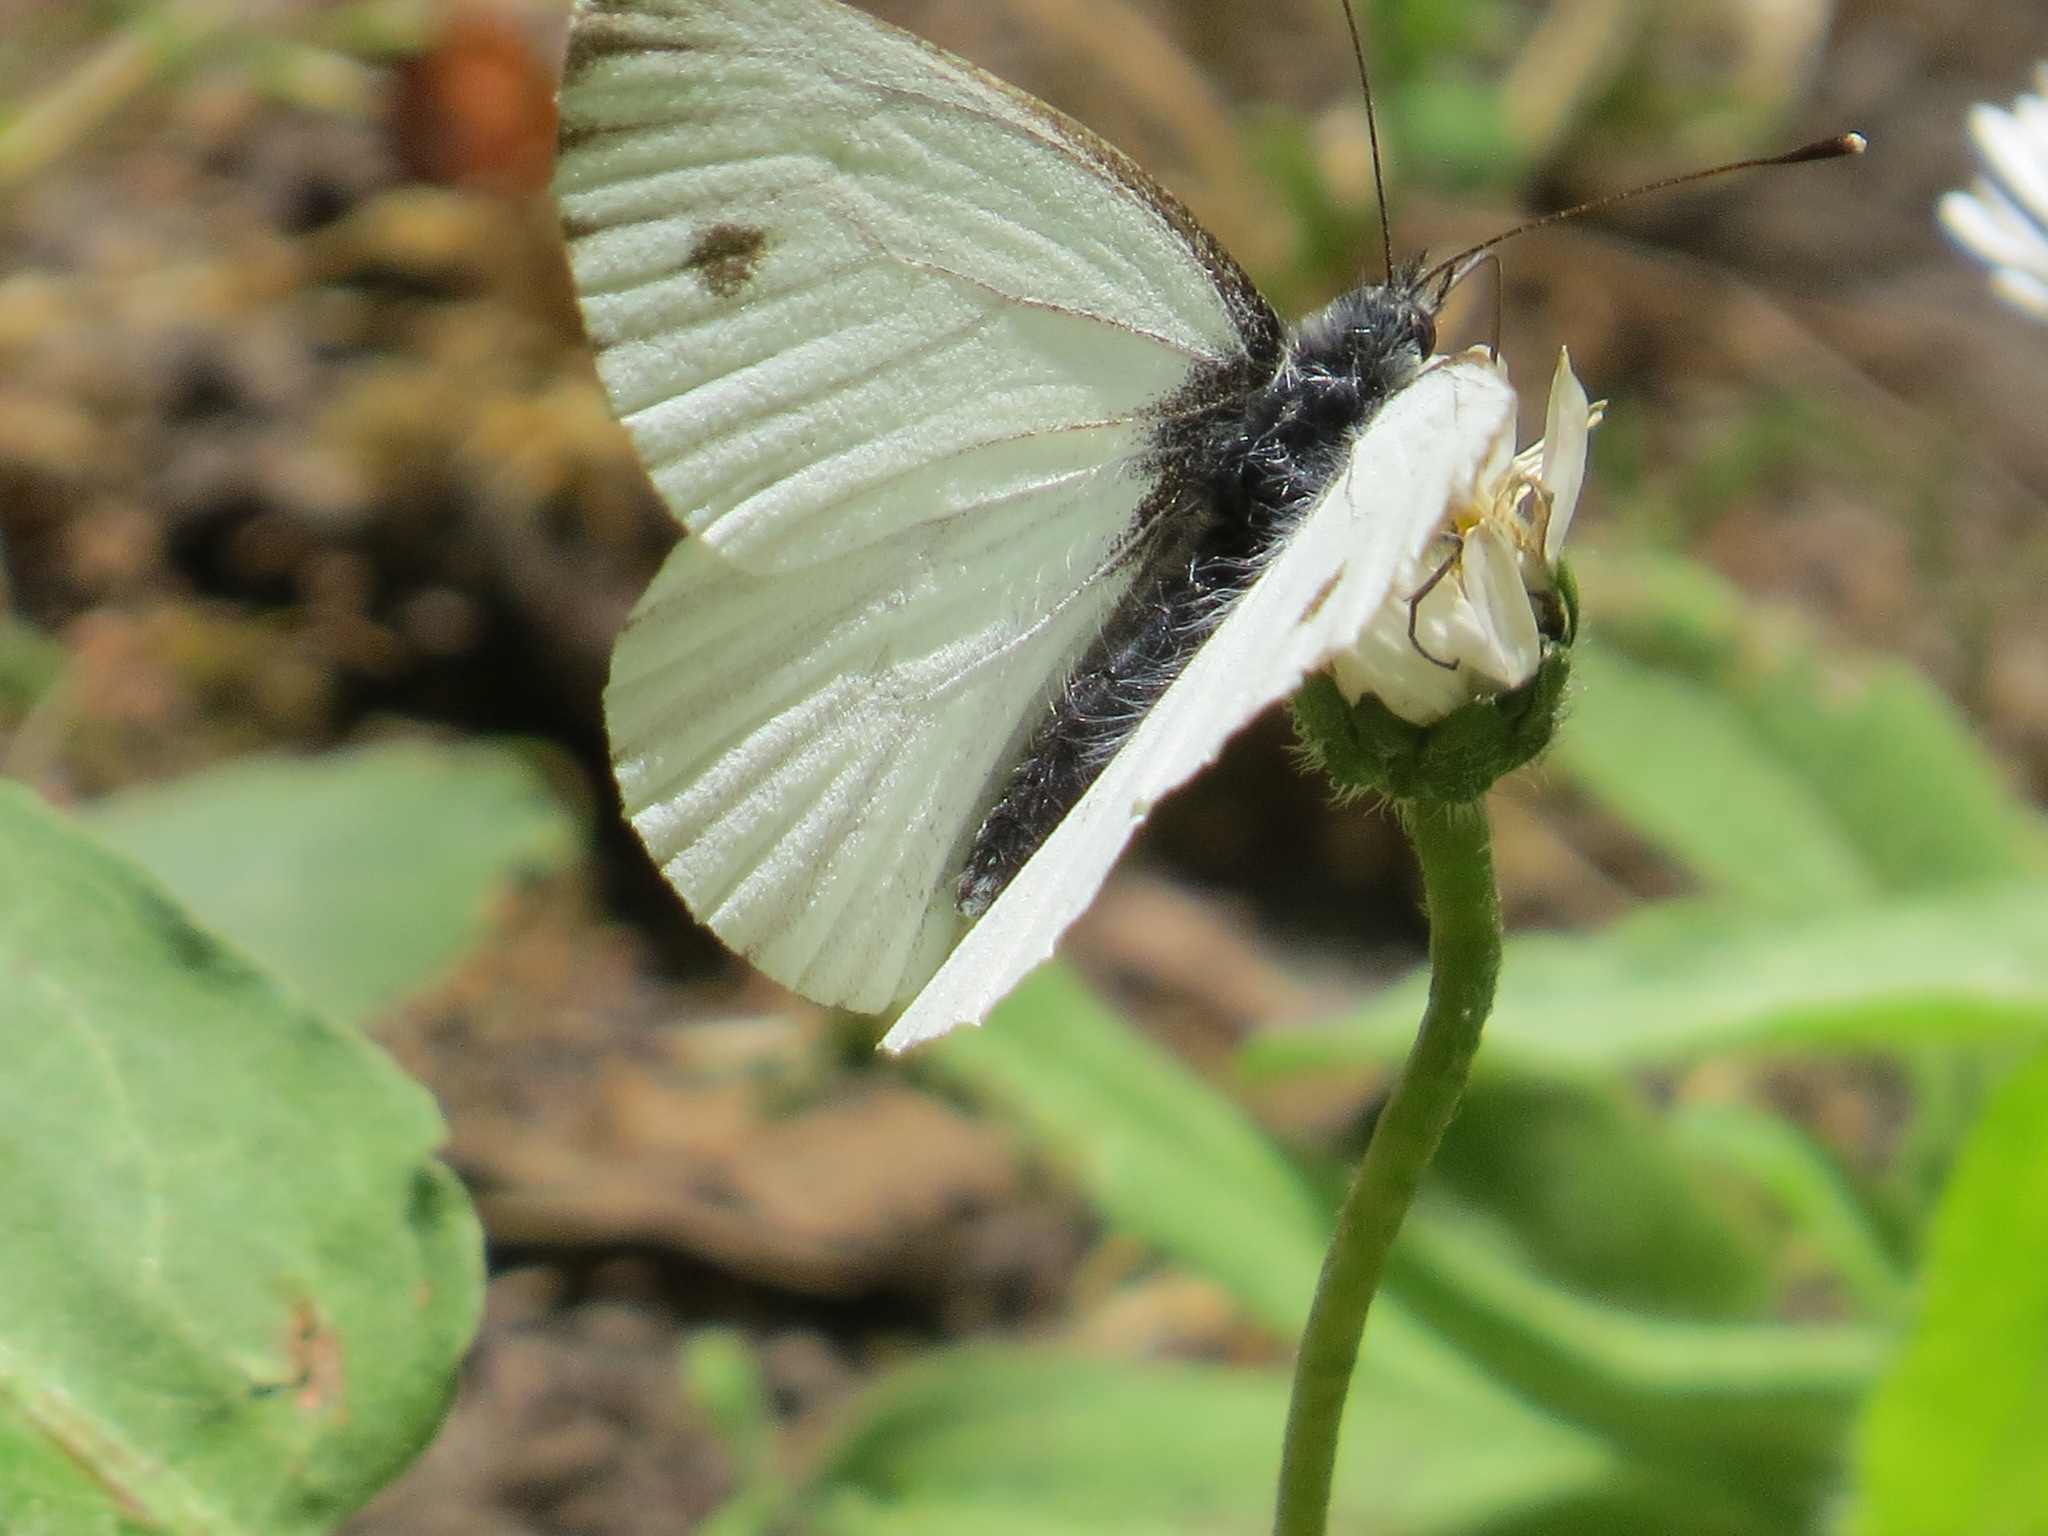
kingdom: Animalia
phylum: Arthropoda
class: Insecta
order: Lepidoptera
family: Pieridae
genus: Pieris
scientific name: Pieris marginalis
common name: Margined white
